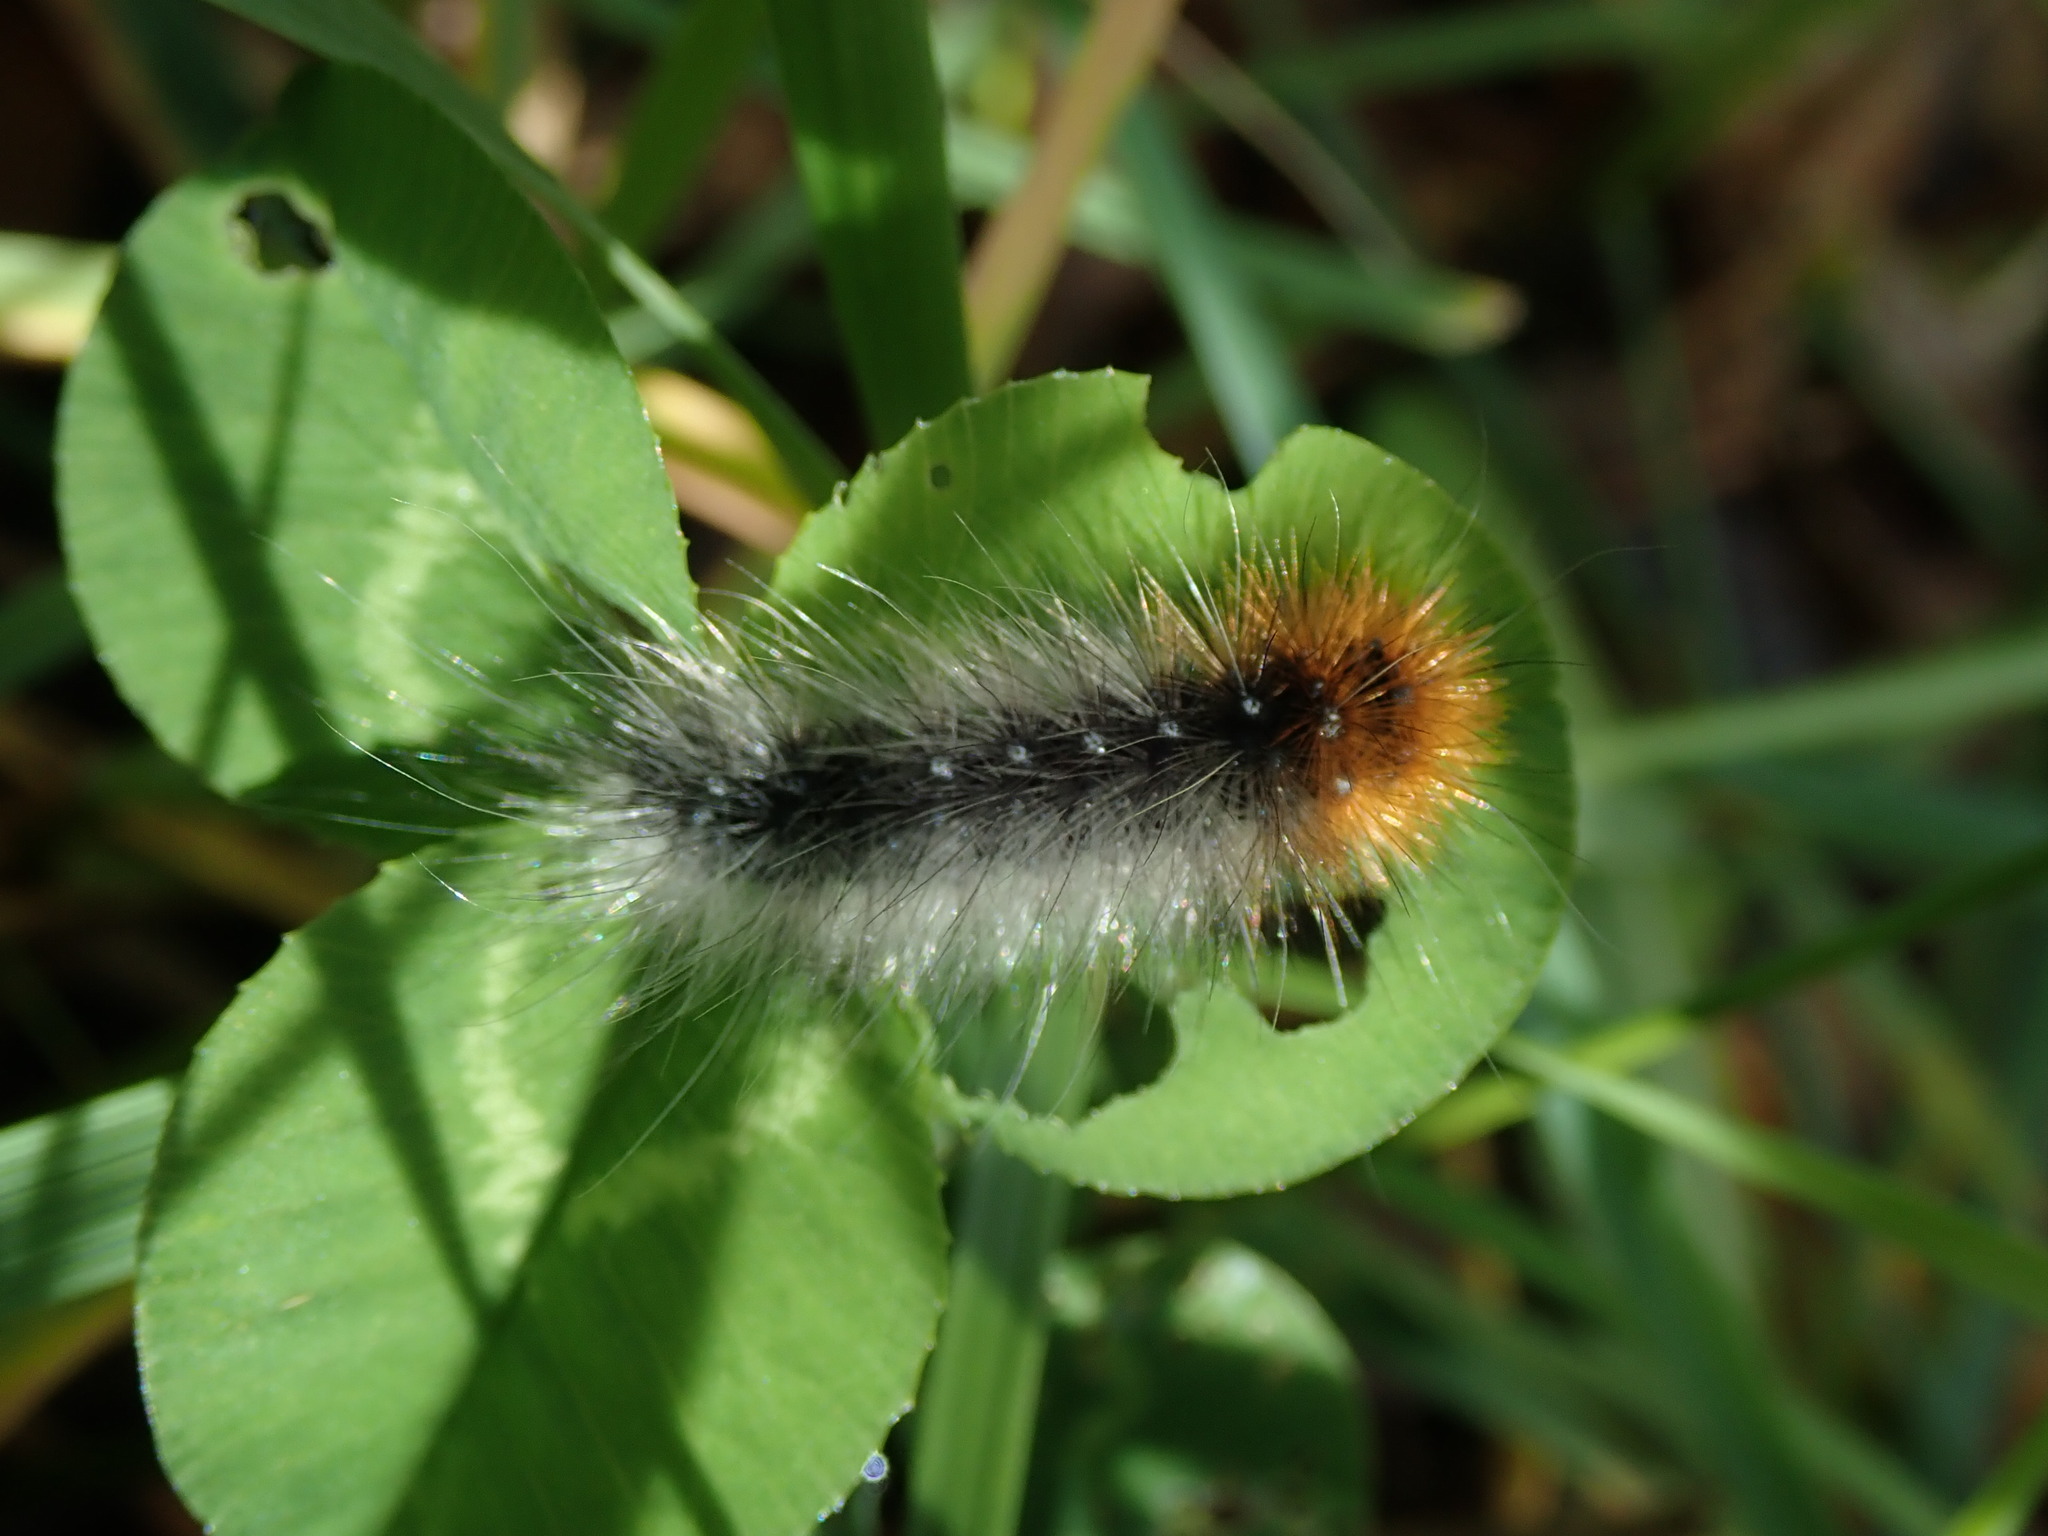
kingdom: Animalia
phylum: Arthropoda
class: Insecta
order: Lepidoptera
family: Erebidae
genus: Arctia
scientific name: Arctia caja
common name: Garden tiger
